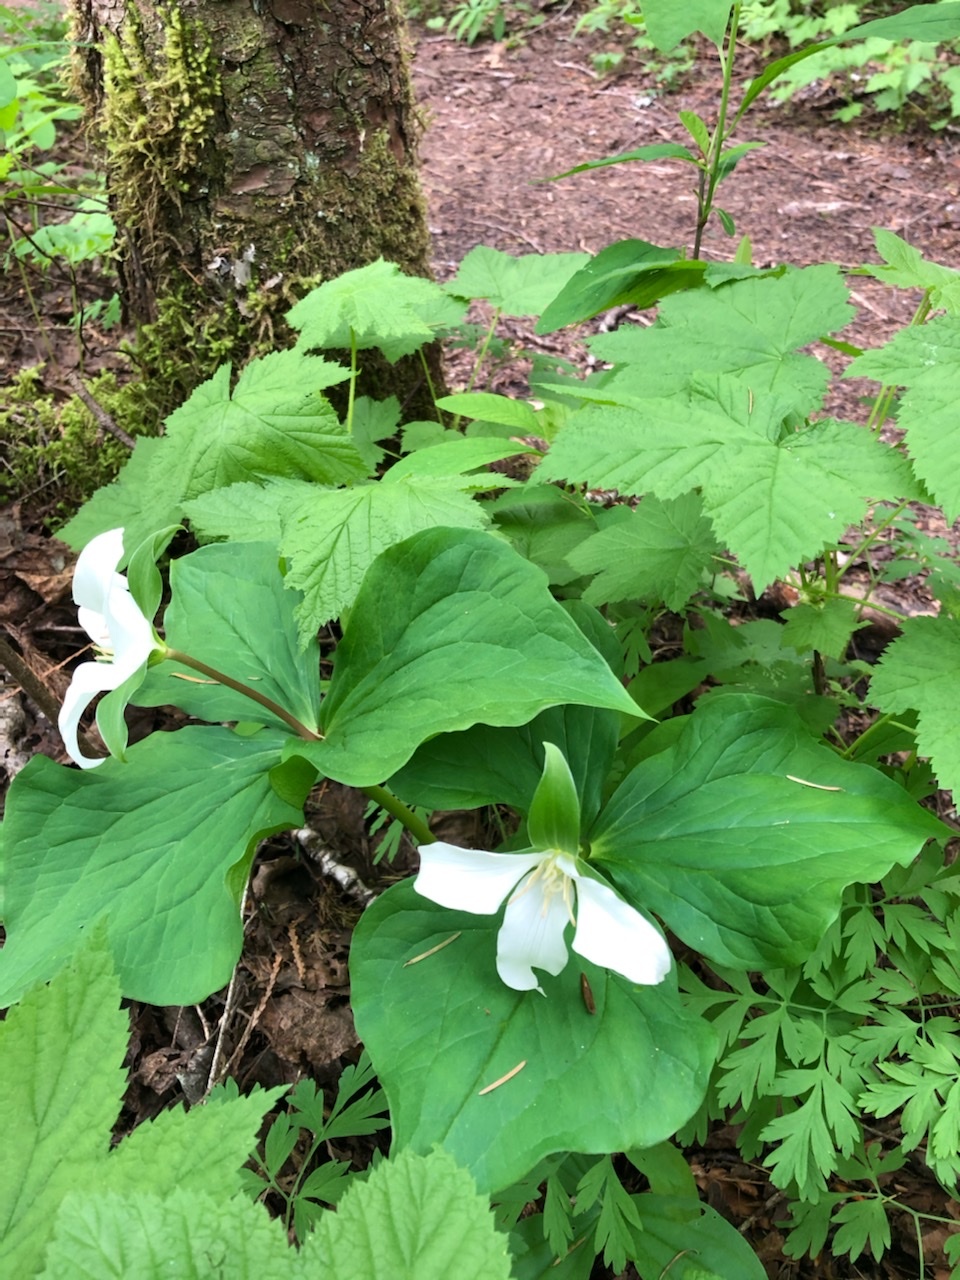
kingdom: Plantae
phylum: Tracheophyta
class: Liliopsida
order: Liliales
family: Melanthiaceae
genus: Trillium
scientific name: Trillium ovatum
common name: Pacific trillium
